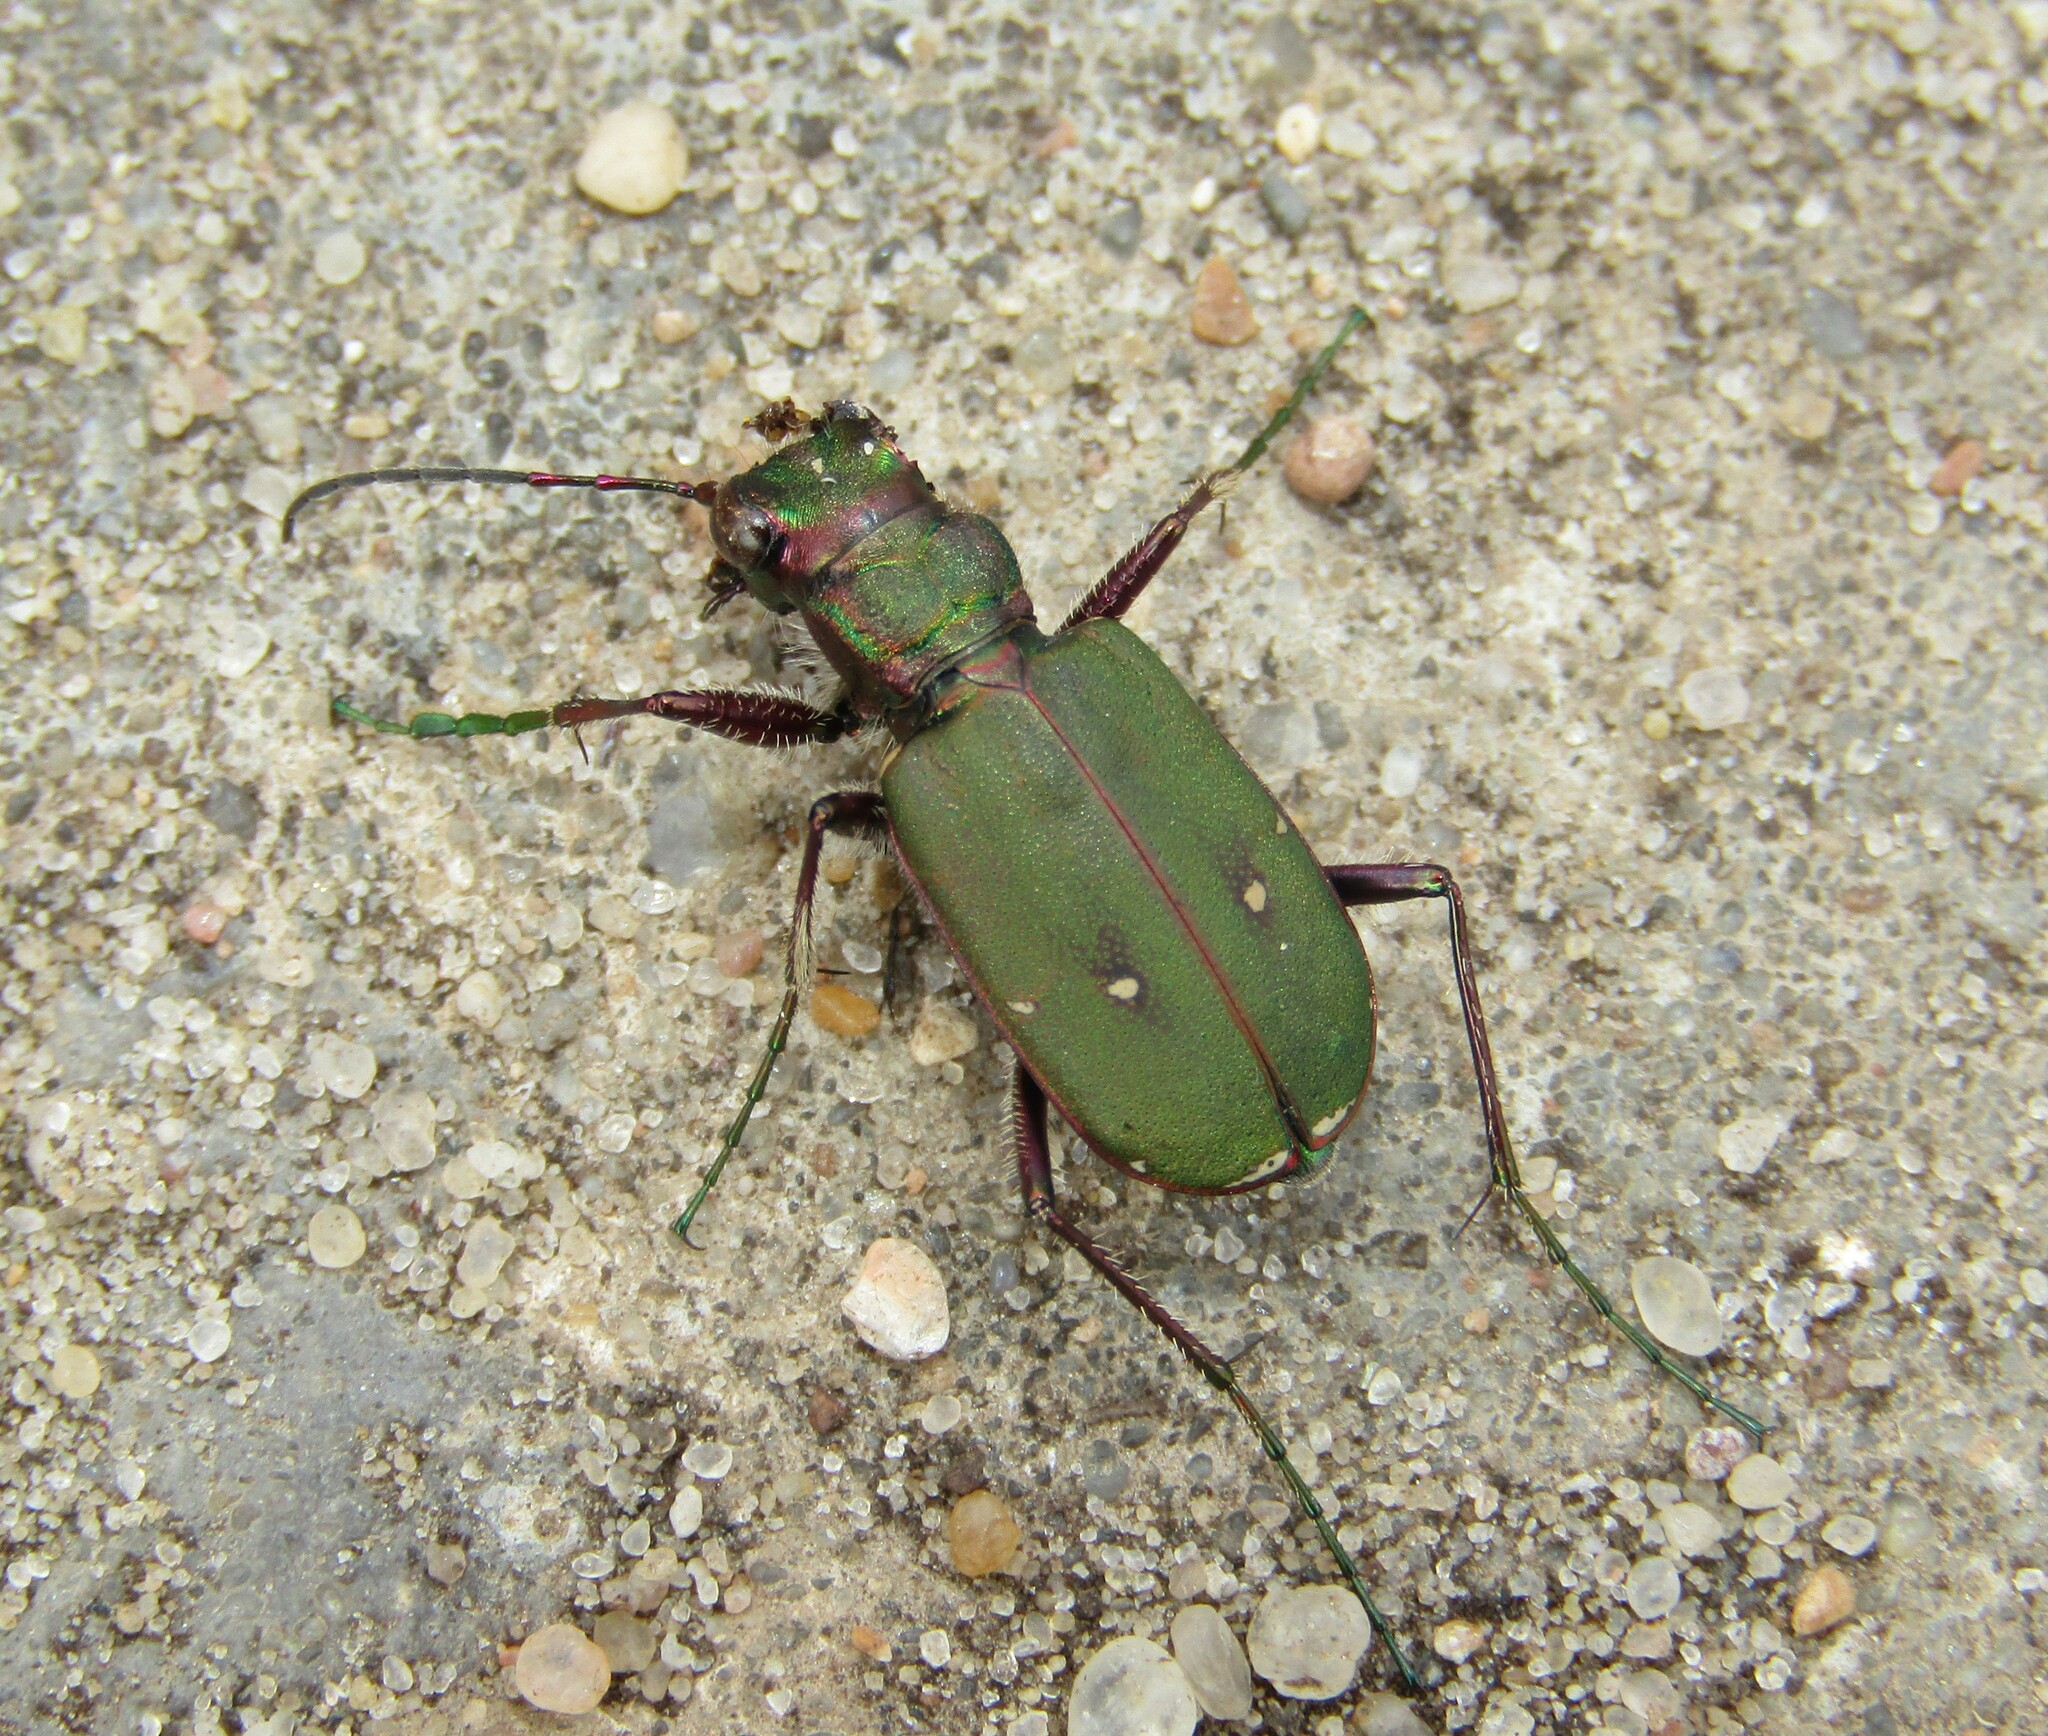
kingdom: Animalia
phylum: Arthropoda
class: Insecta
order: Coleoptera
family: Carabidae
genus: Cicindela
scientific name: Cicindela campestris
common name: Common tiger beetle
